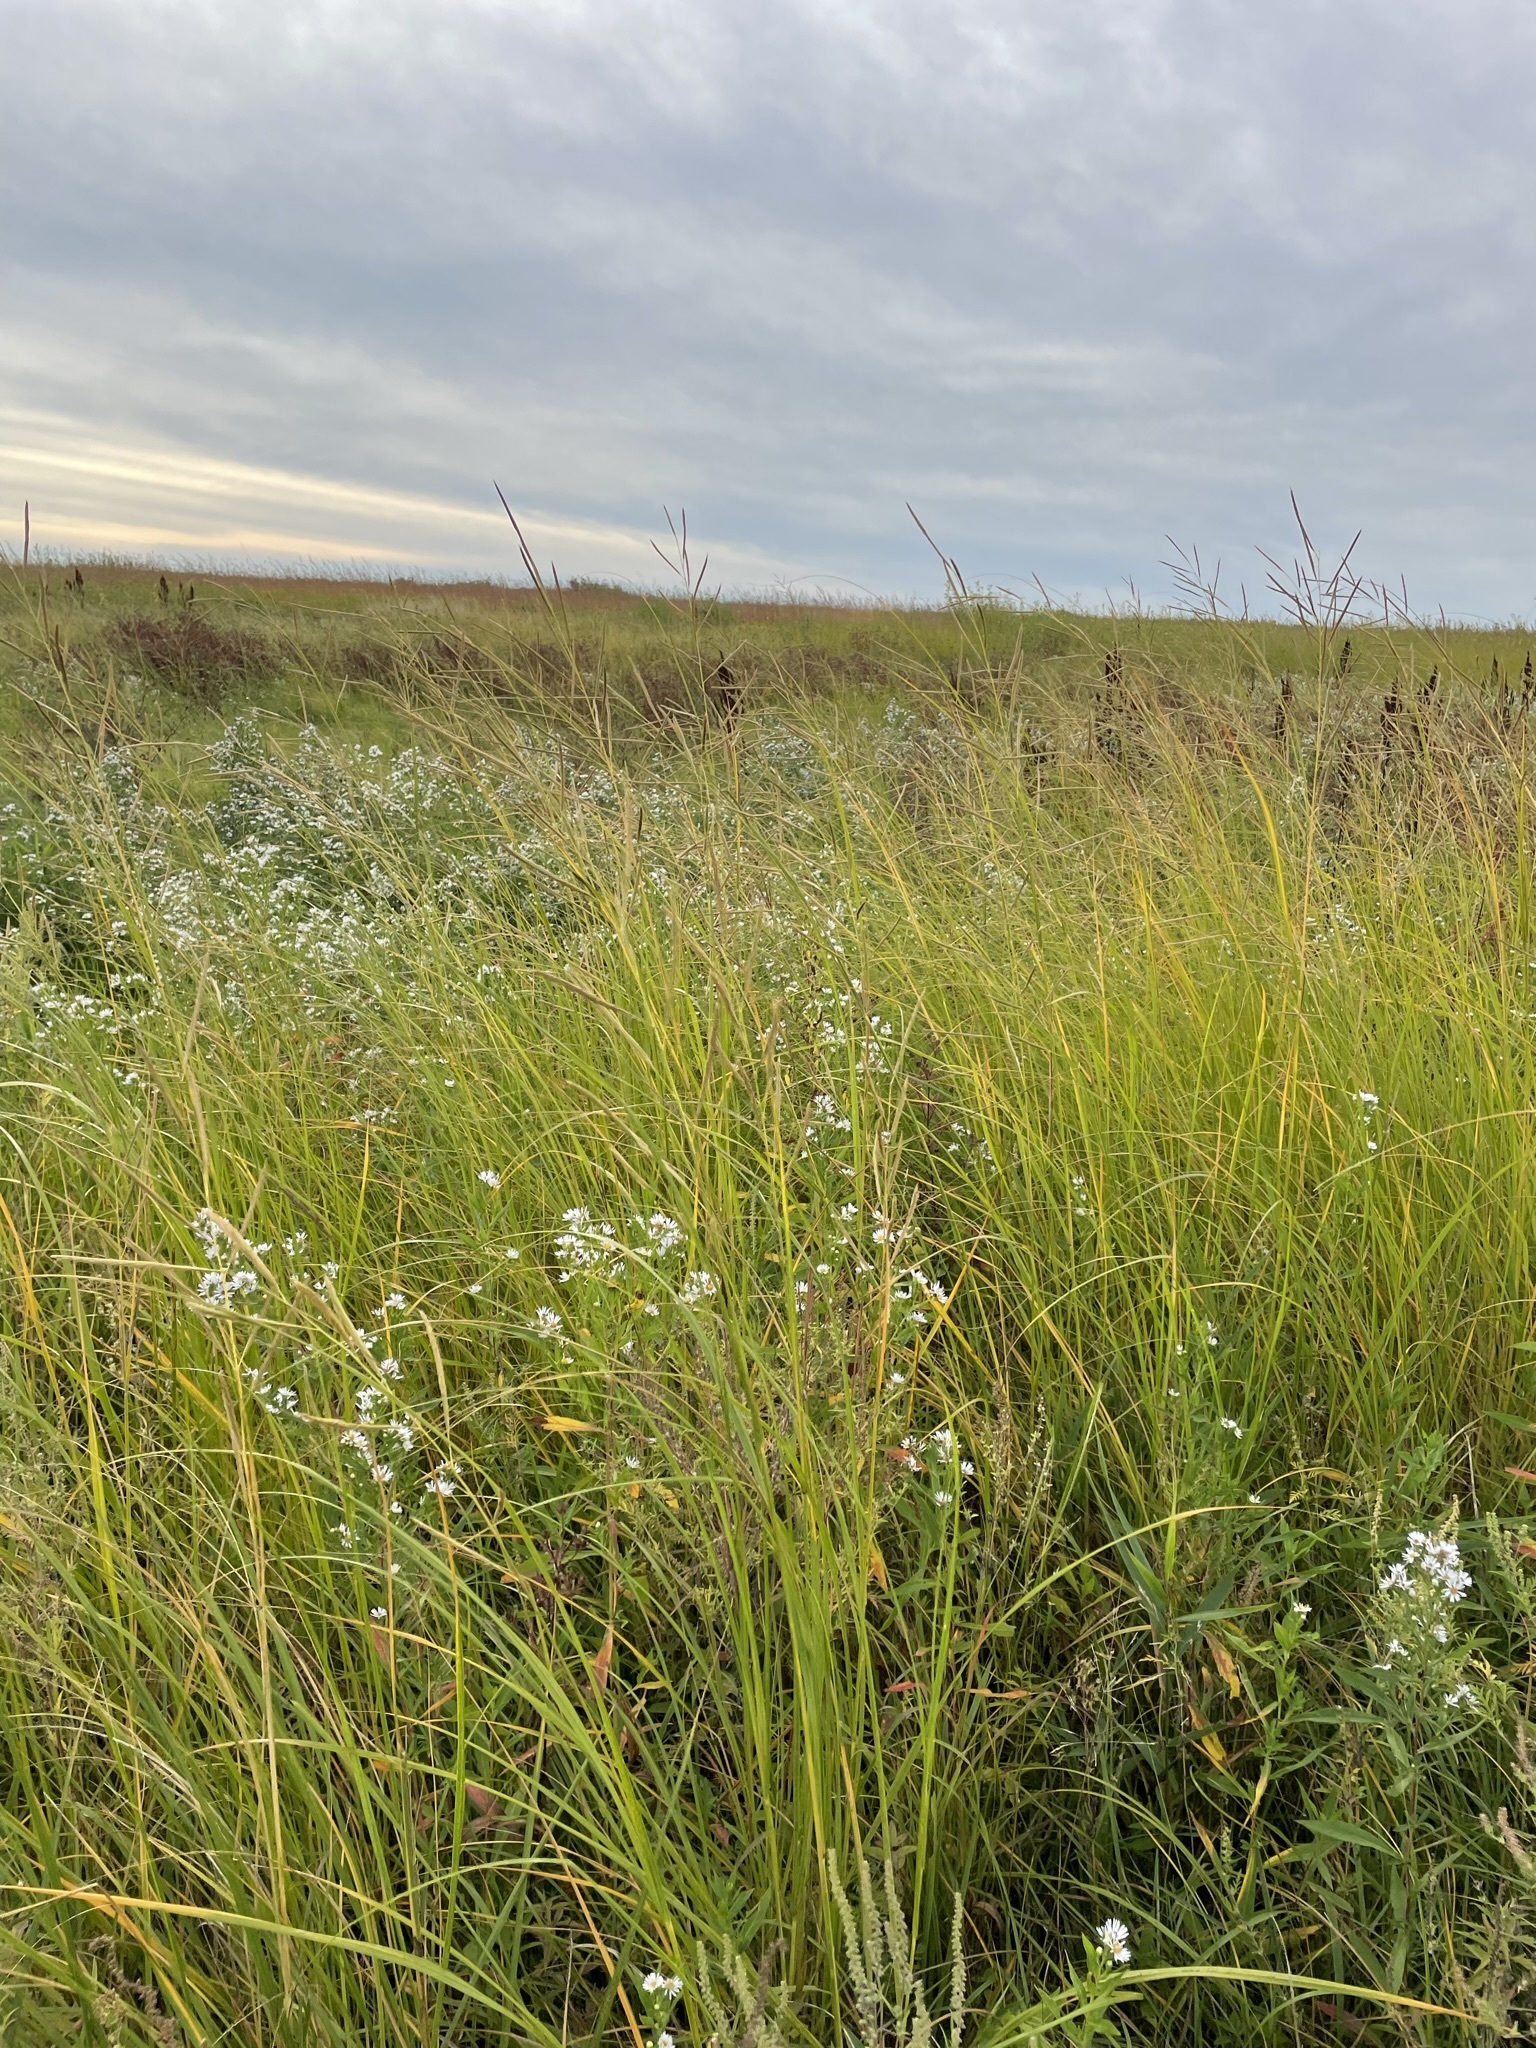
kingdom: Plantae
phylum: Tracheophyta
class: Liliopsida
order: Poales
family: Poaceae
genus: Sporobolus
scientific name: Sporobolus michauxianus
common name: Freshwater cordgrass
